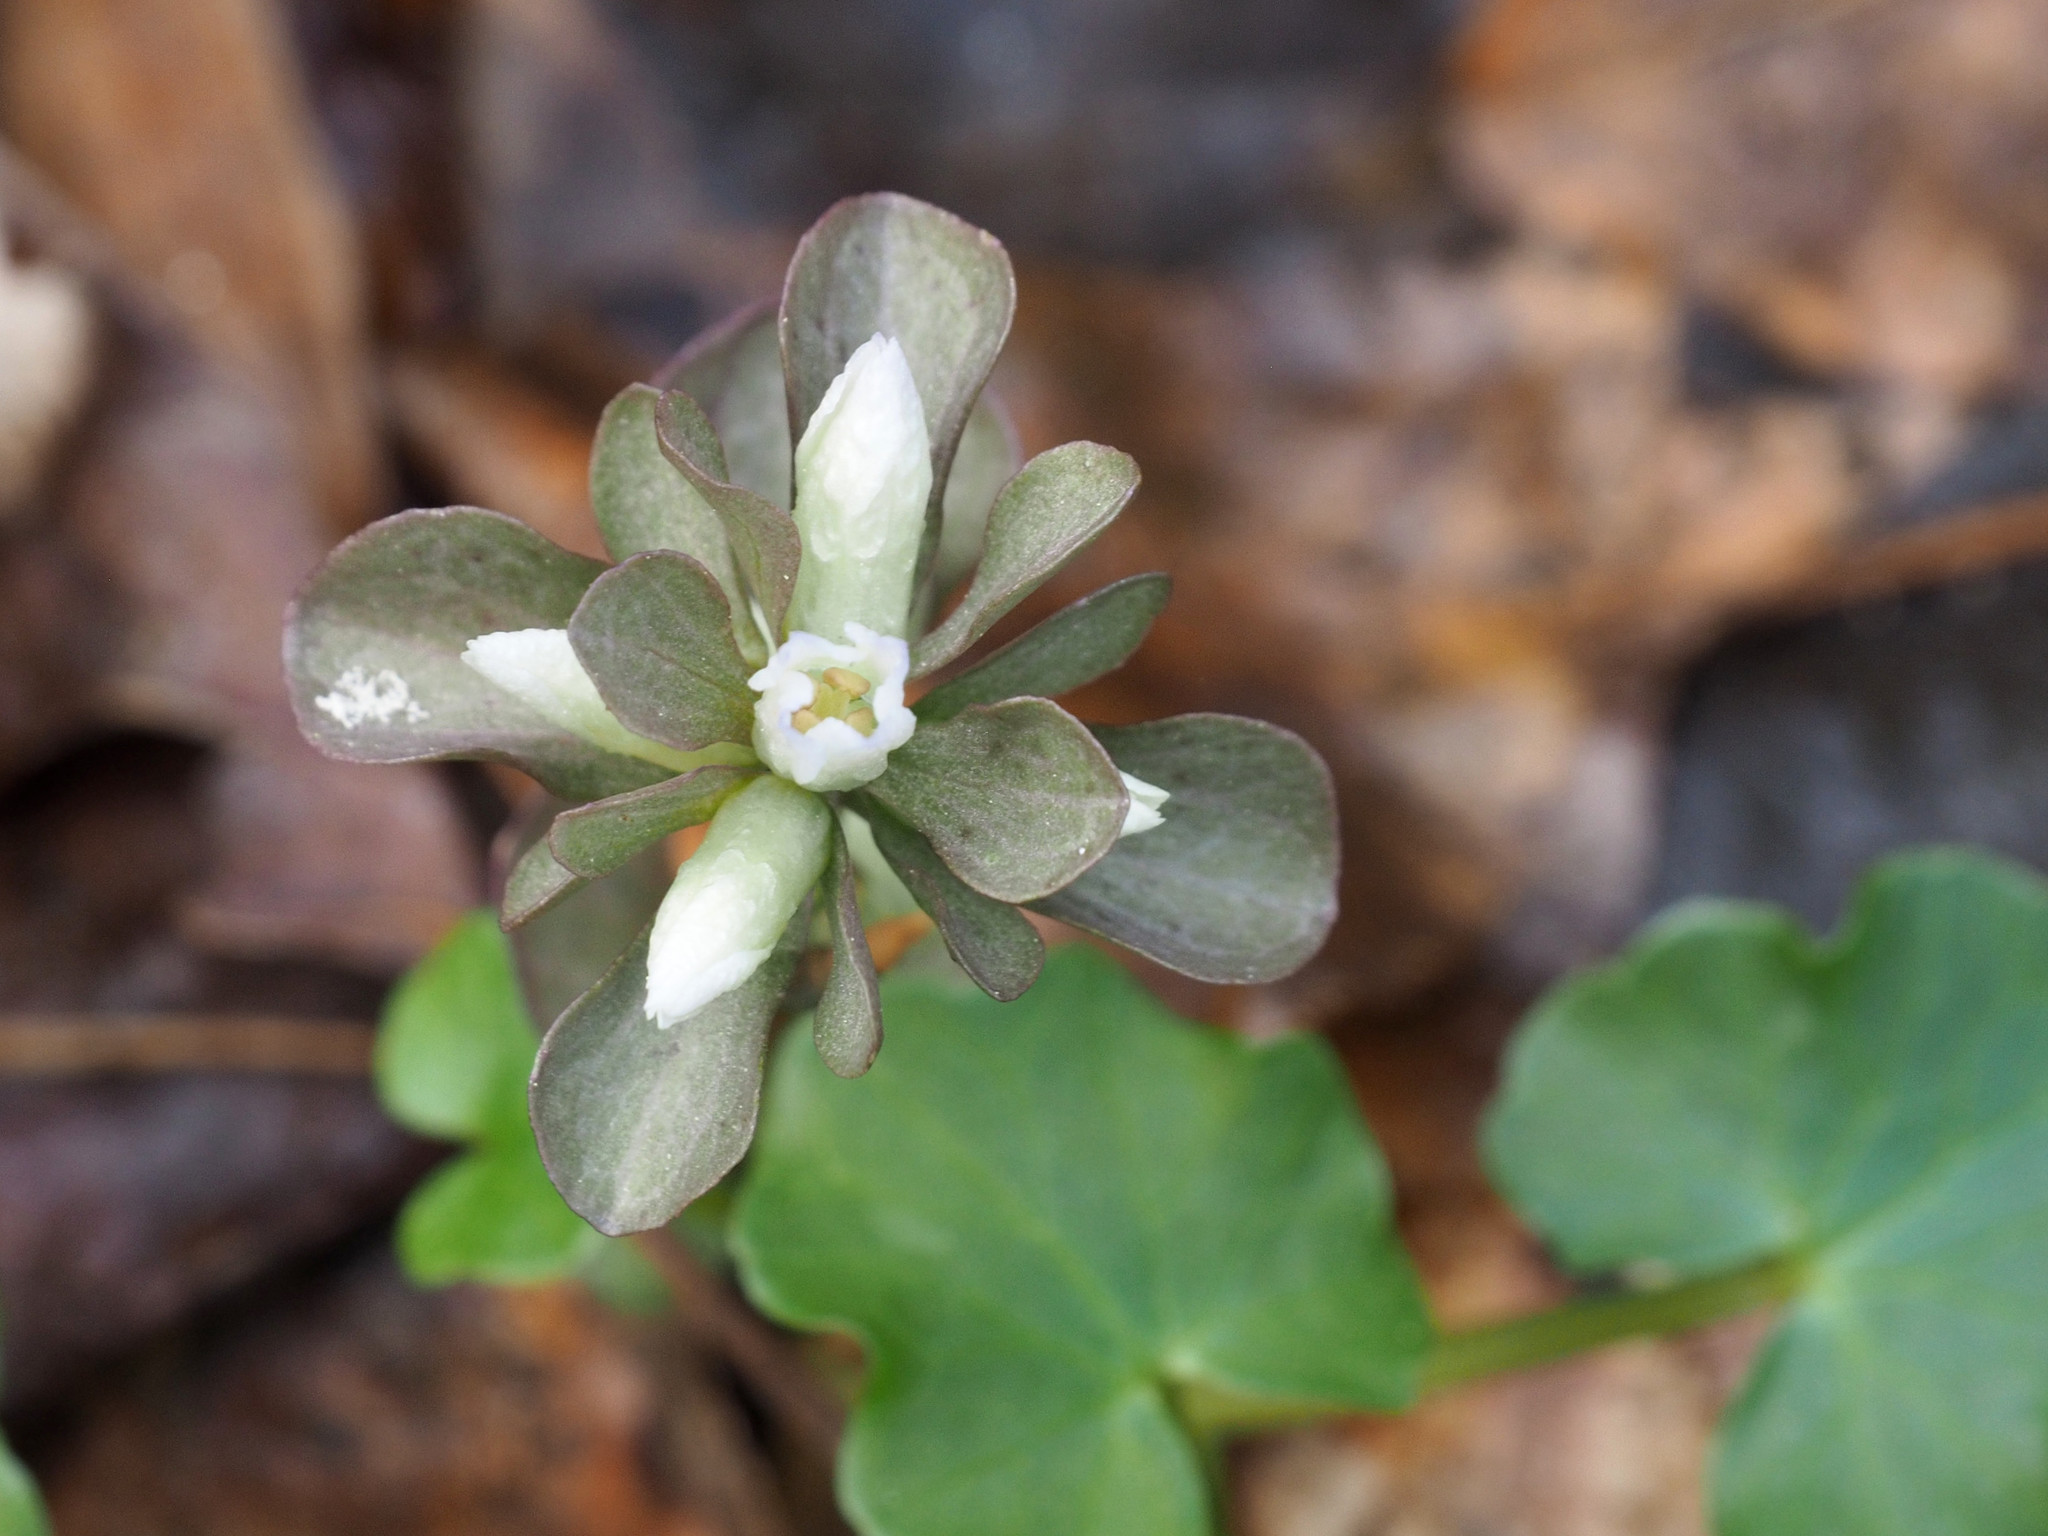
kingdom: Plantae
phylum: Tracheophyta
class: Magnoliopsida
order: Gentianales
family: Gentianaceae
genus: Obolaria
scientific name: Obolaria virginica
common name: Pennywort
